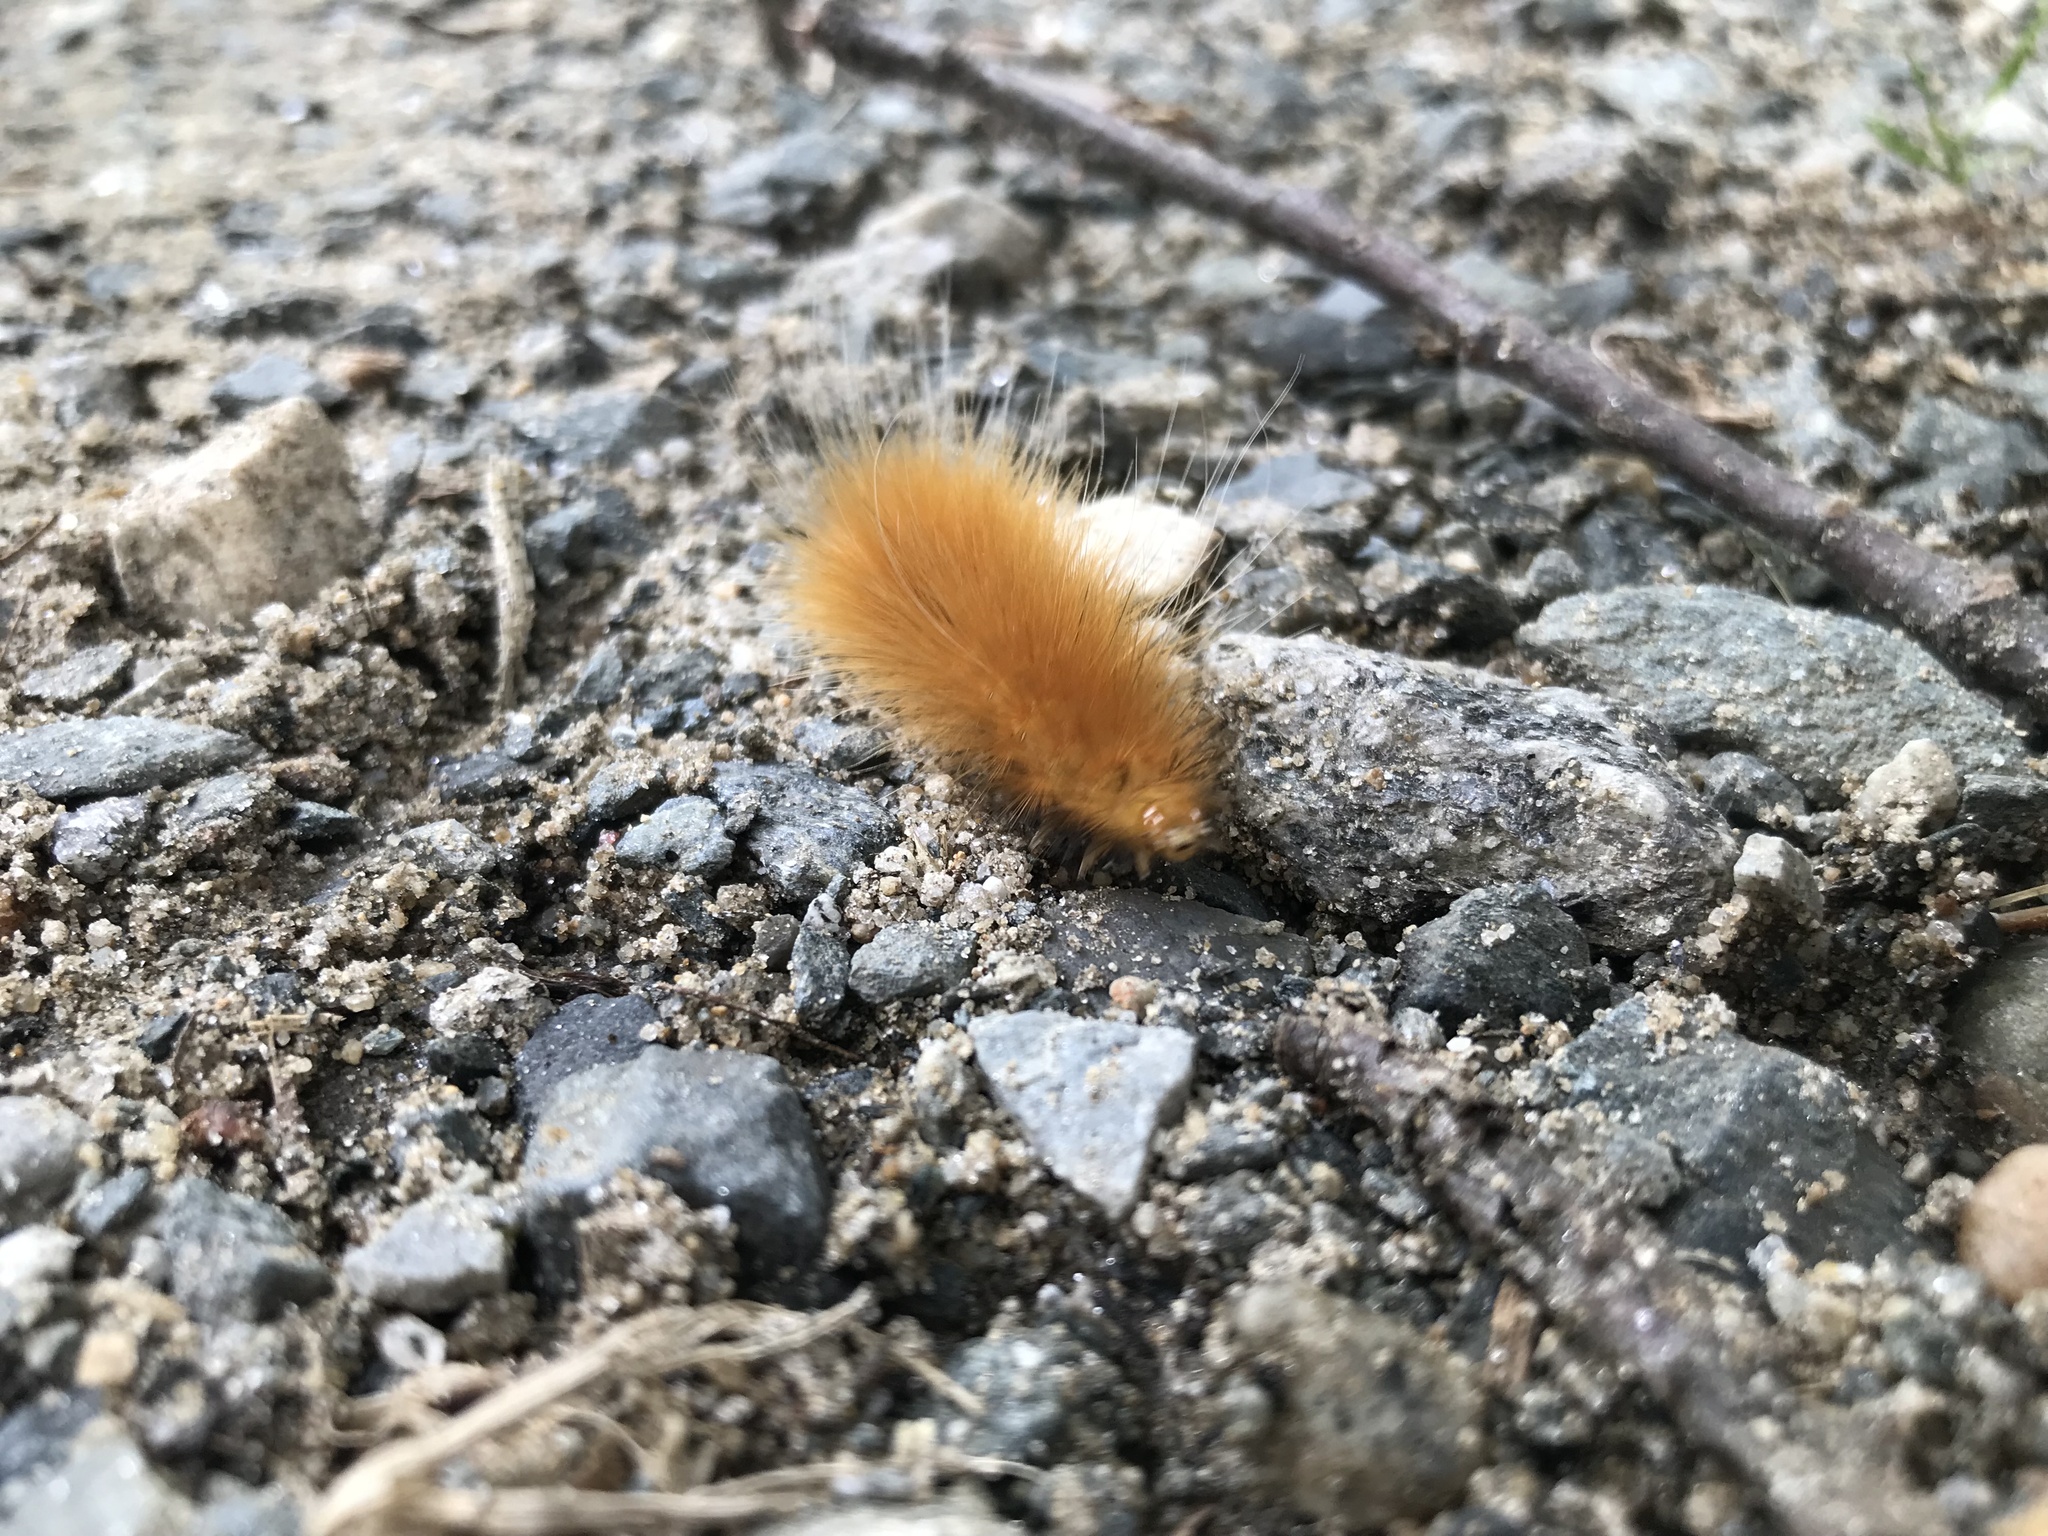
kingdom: Animalia
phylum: Arthropoda
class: Insecta
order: Lepidoptera
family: Erebidae
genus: Spilosoma
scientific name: Spilosoma virginica
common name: Virginia tiger moth
